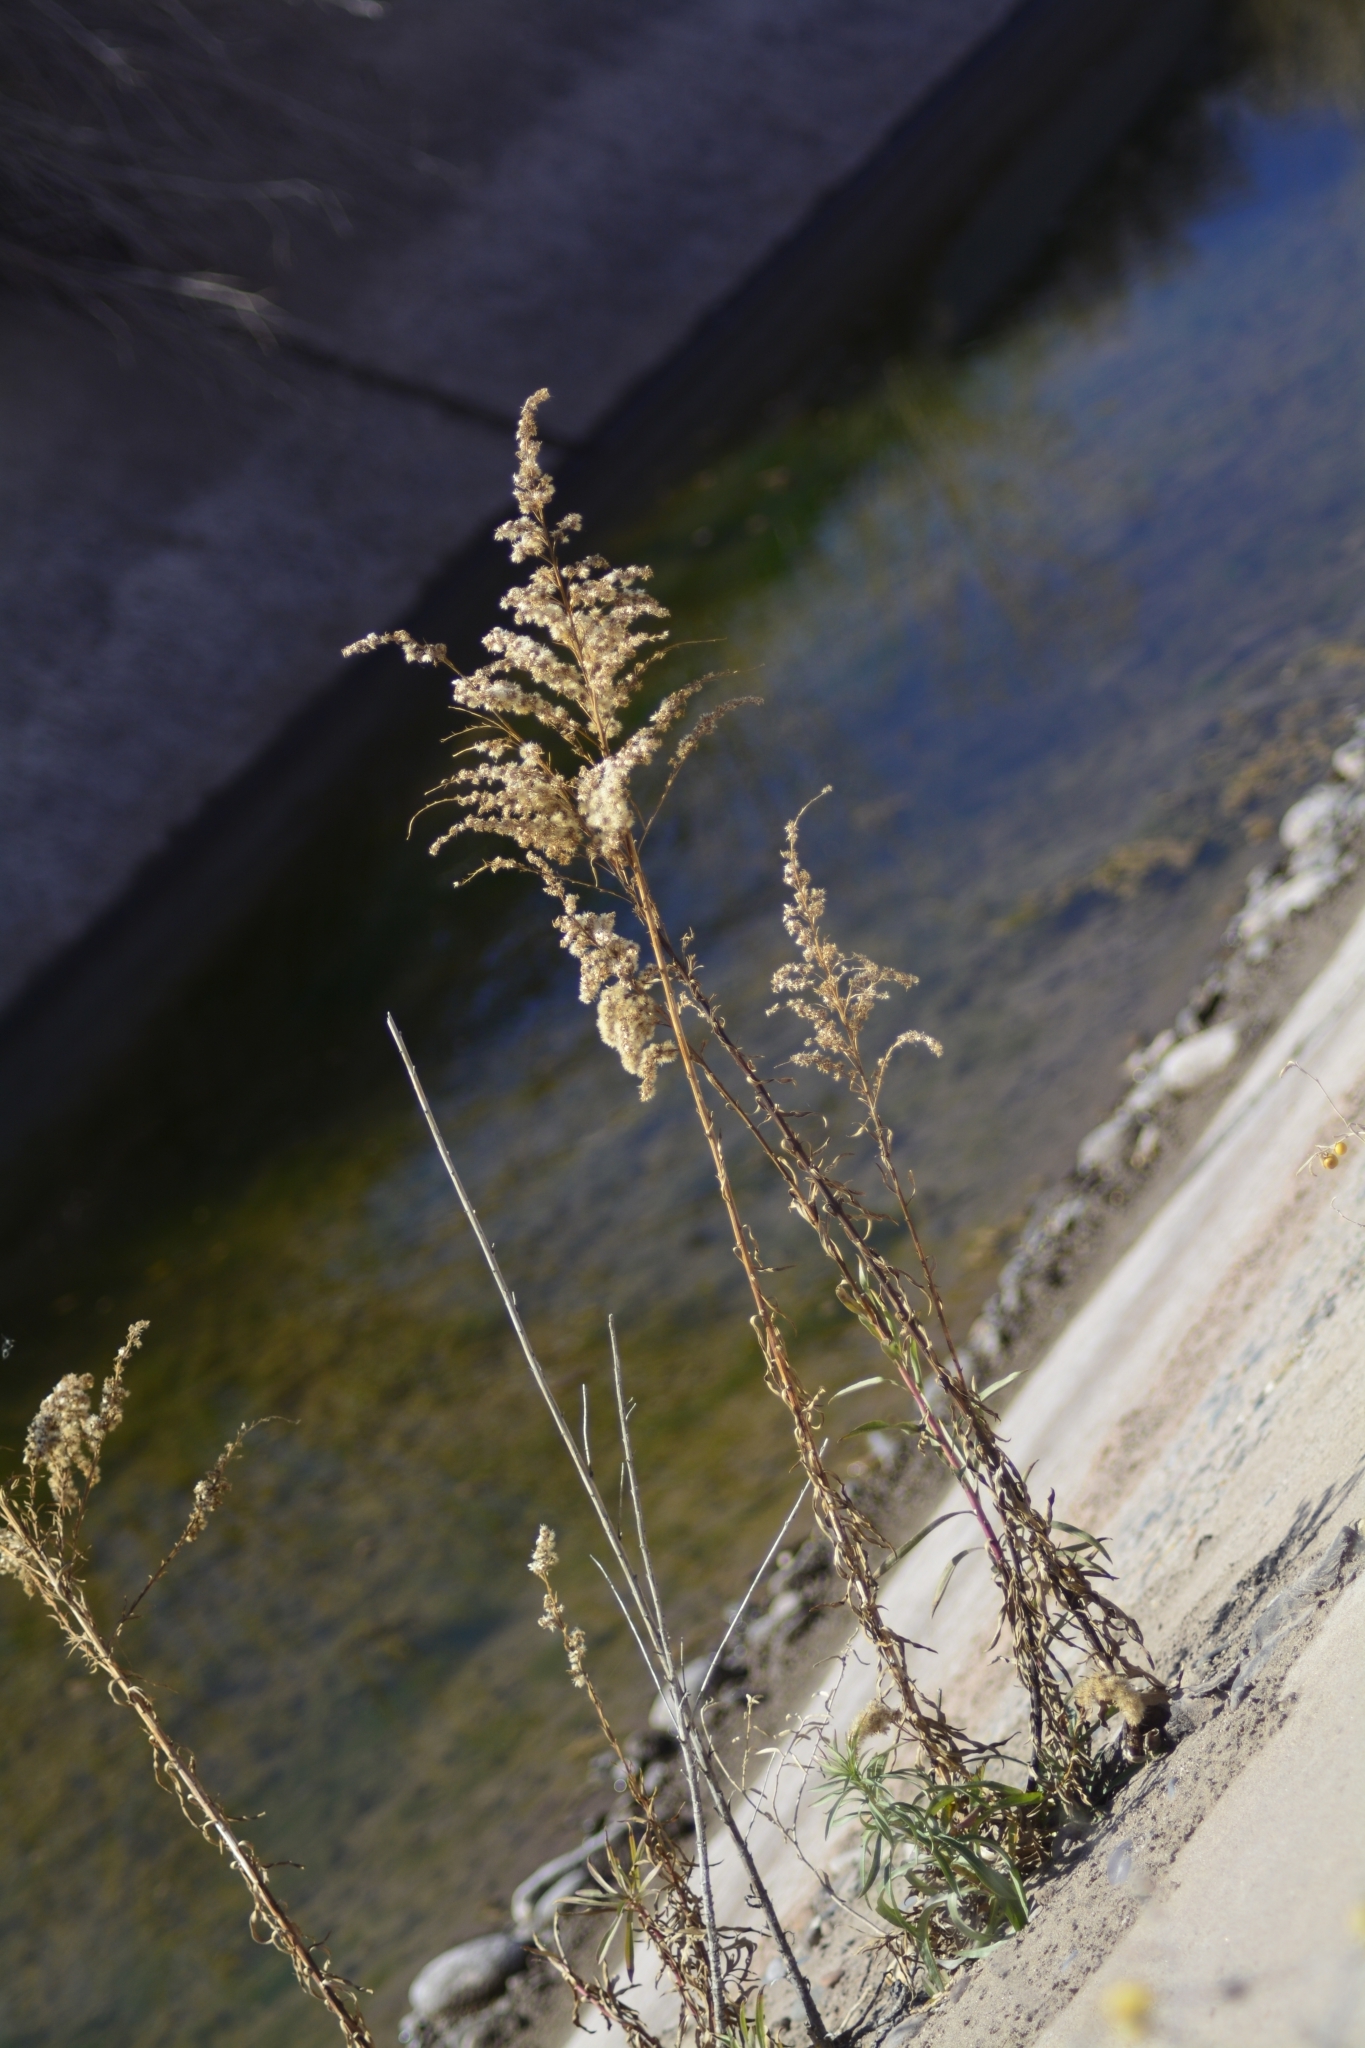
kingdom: Plantae
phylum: Tracheophyta
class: Magnoliopsida
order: Asterales
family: Asteraceae
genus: Solidago
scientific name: Solidago chilensis
